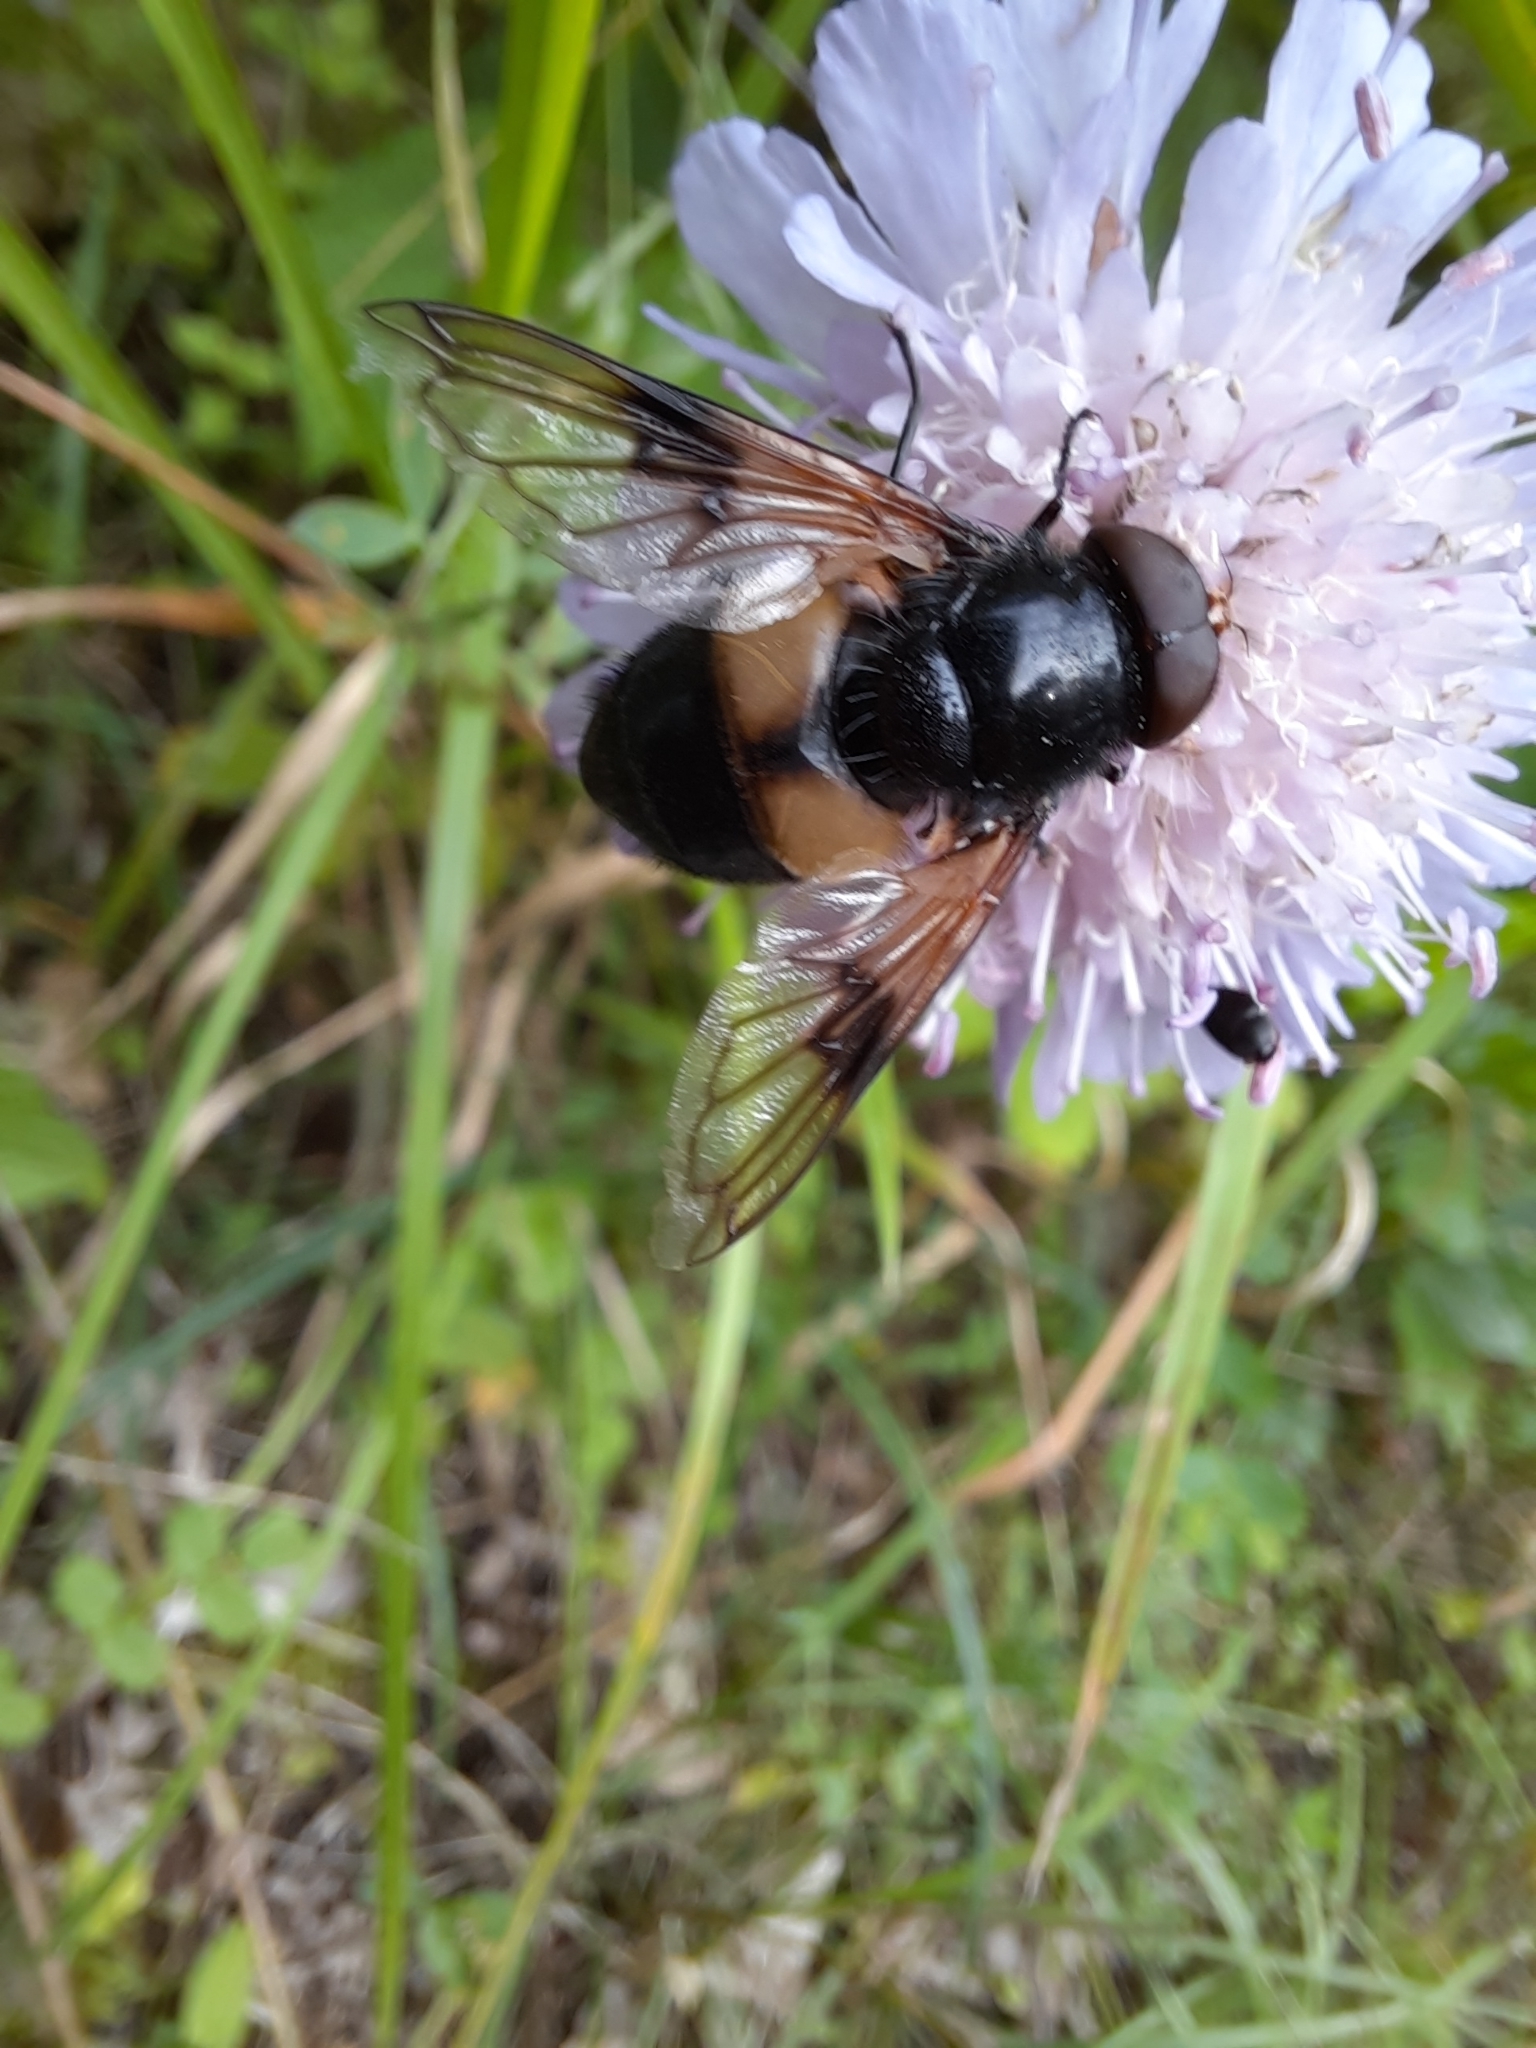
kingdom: Animalia
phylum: Arthropoda
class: Insecta
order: Diptera
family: Syrphidae
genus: Volucella
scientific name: Volucella pellucens
